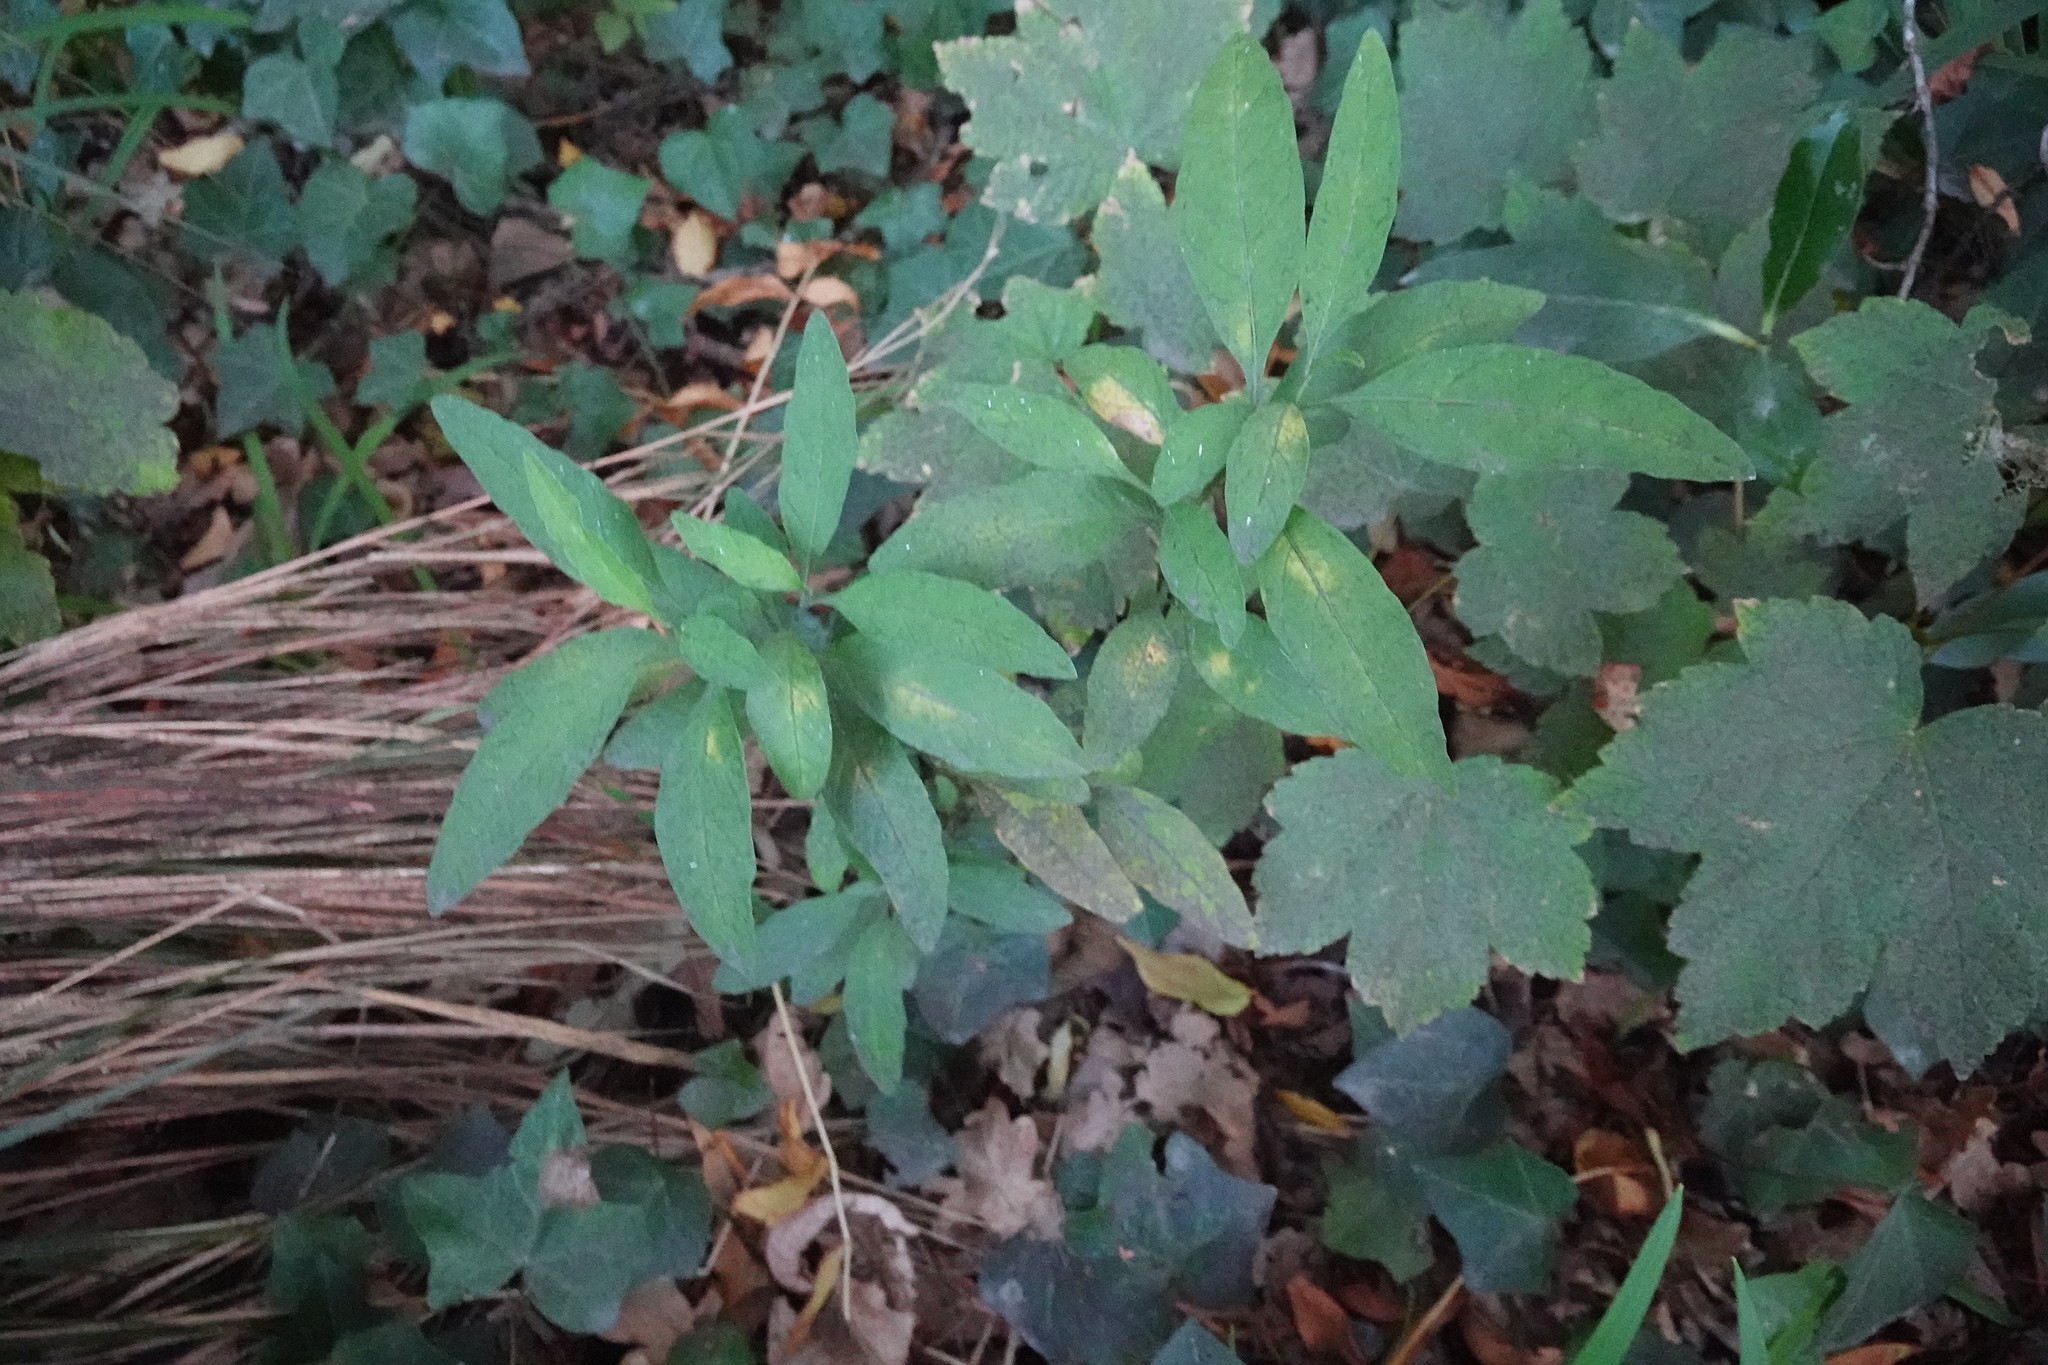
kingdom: Plantae
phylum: Tracheophyta
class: Magnoliopsida
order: Solanales
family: Solanaceae
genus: Solanum
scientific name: Solanum
